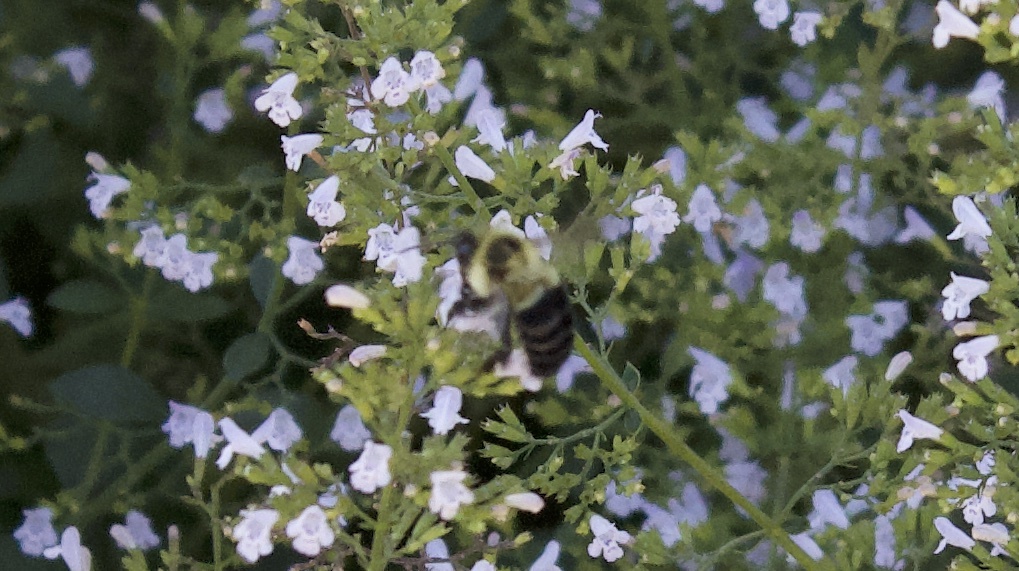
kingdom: Animalia
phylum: Arthropoda
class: Insecta
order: Hymenoptera
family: Apidae
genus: Bombus
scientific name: Bombus impatiens
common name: Common eastern bumble bee
